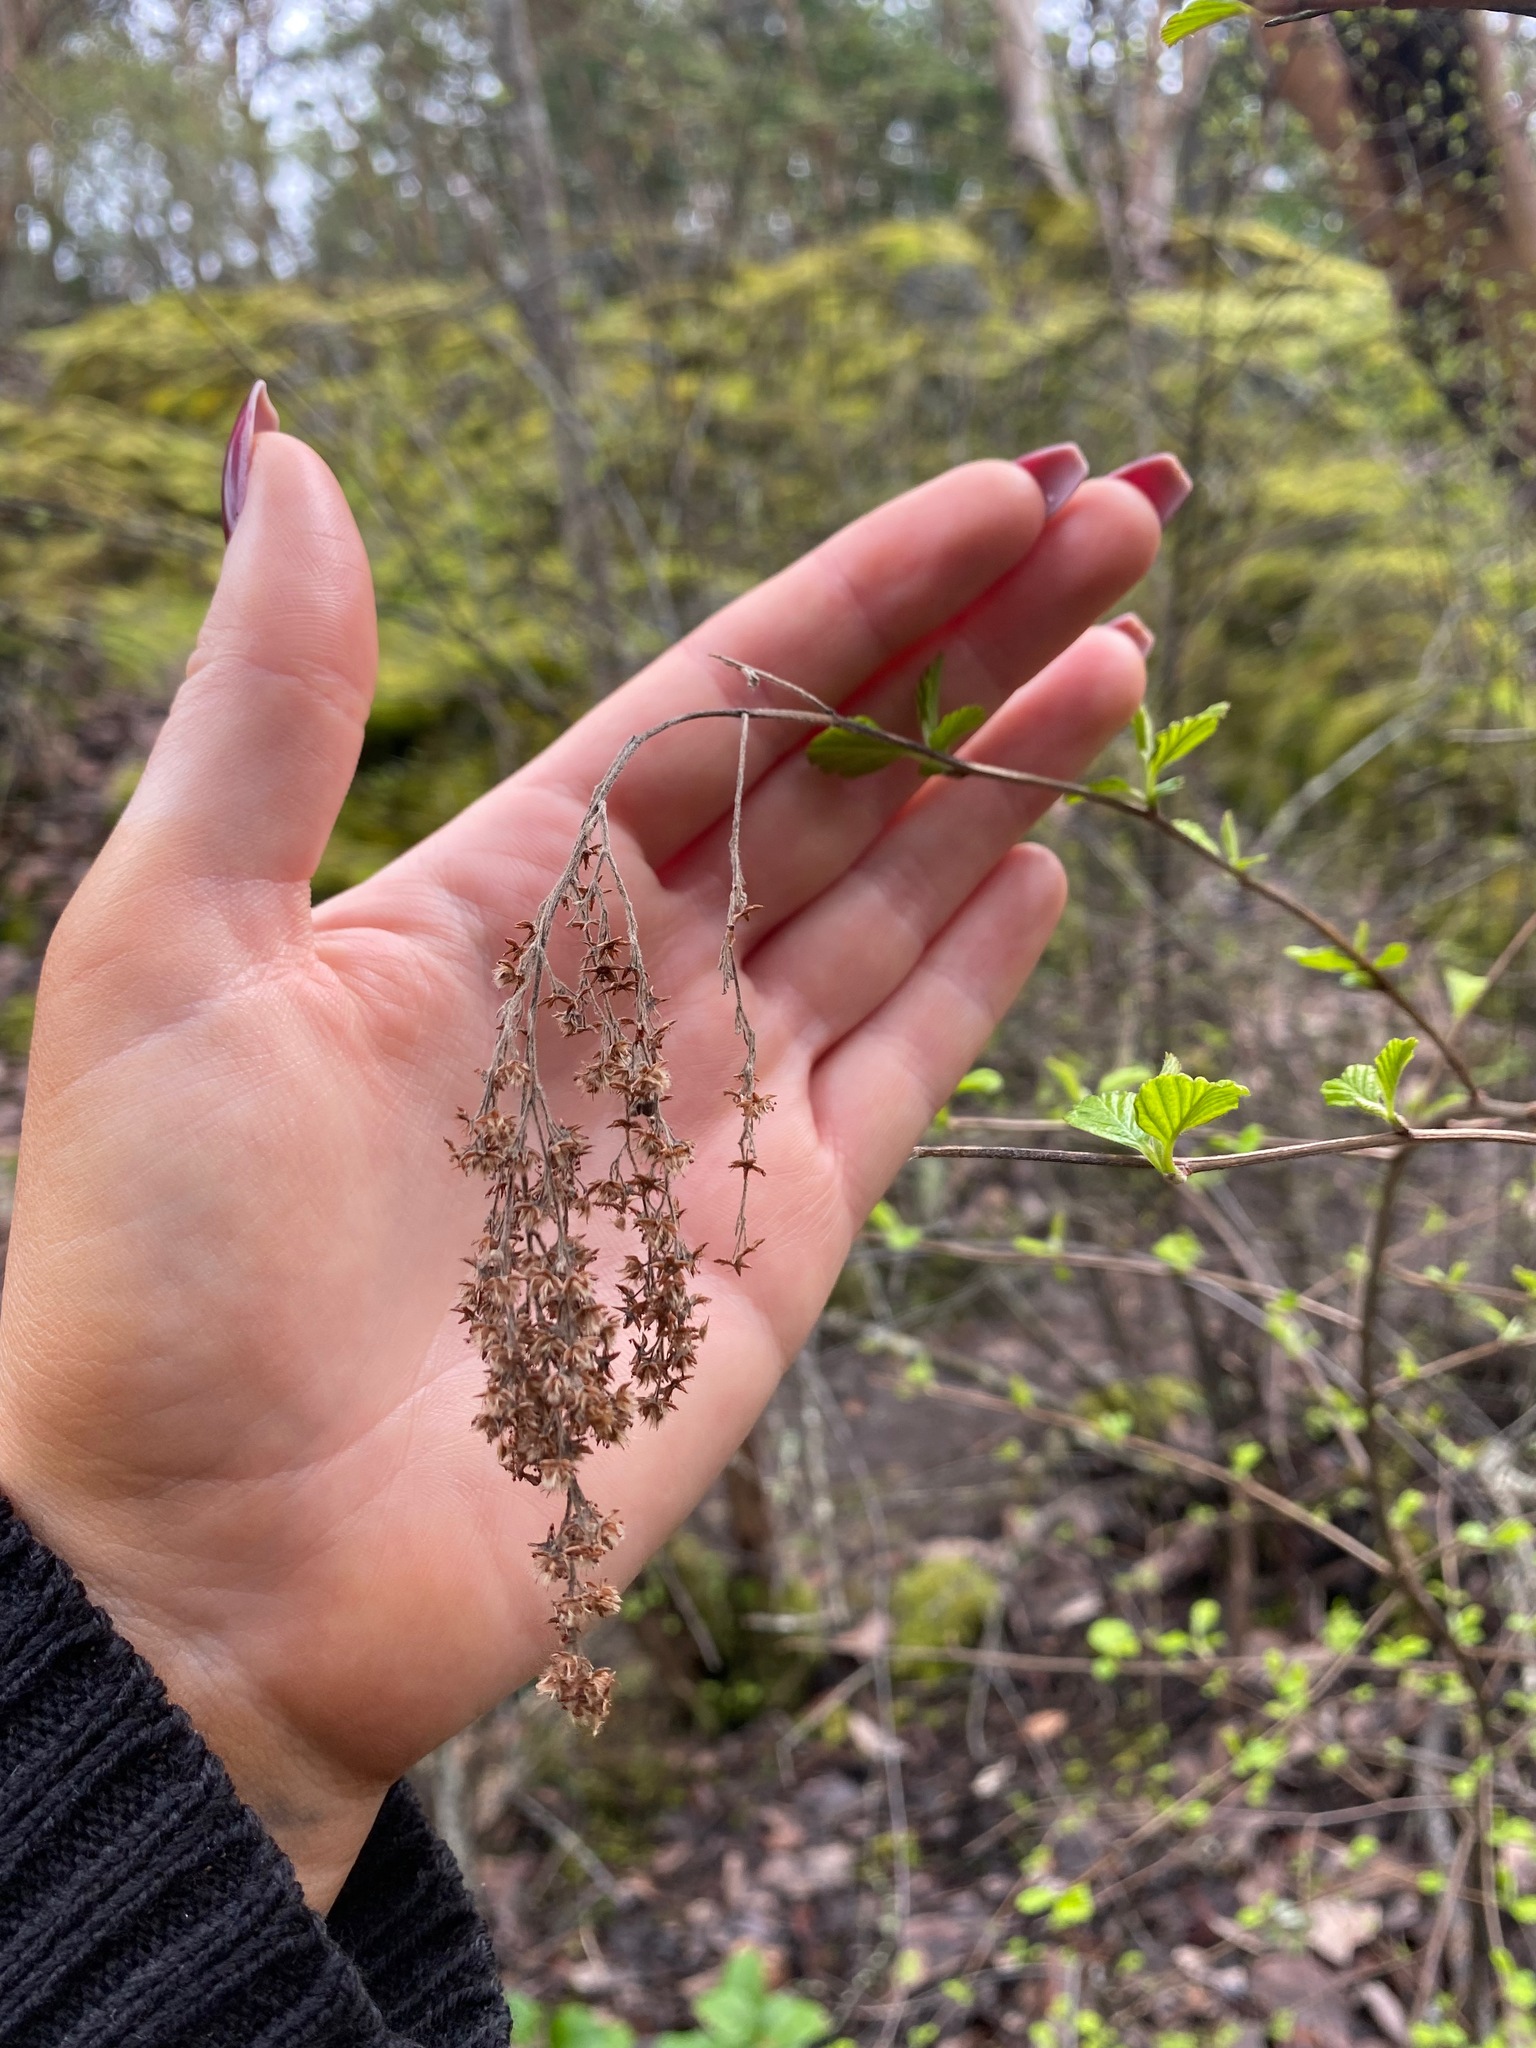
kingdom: Plantae
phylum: Tracheophyta
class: Magnoliopsida
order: Rosales
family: Rosaceae
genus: Holodiscus
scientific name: Holodiscus discolor
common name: Oceanspray
